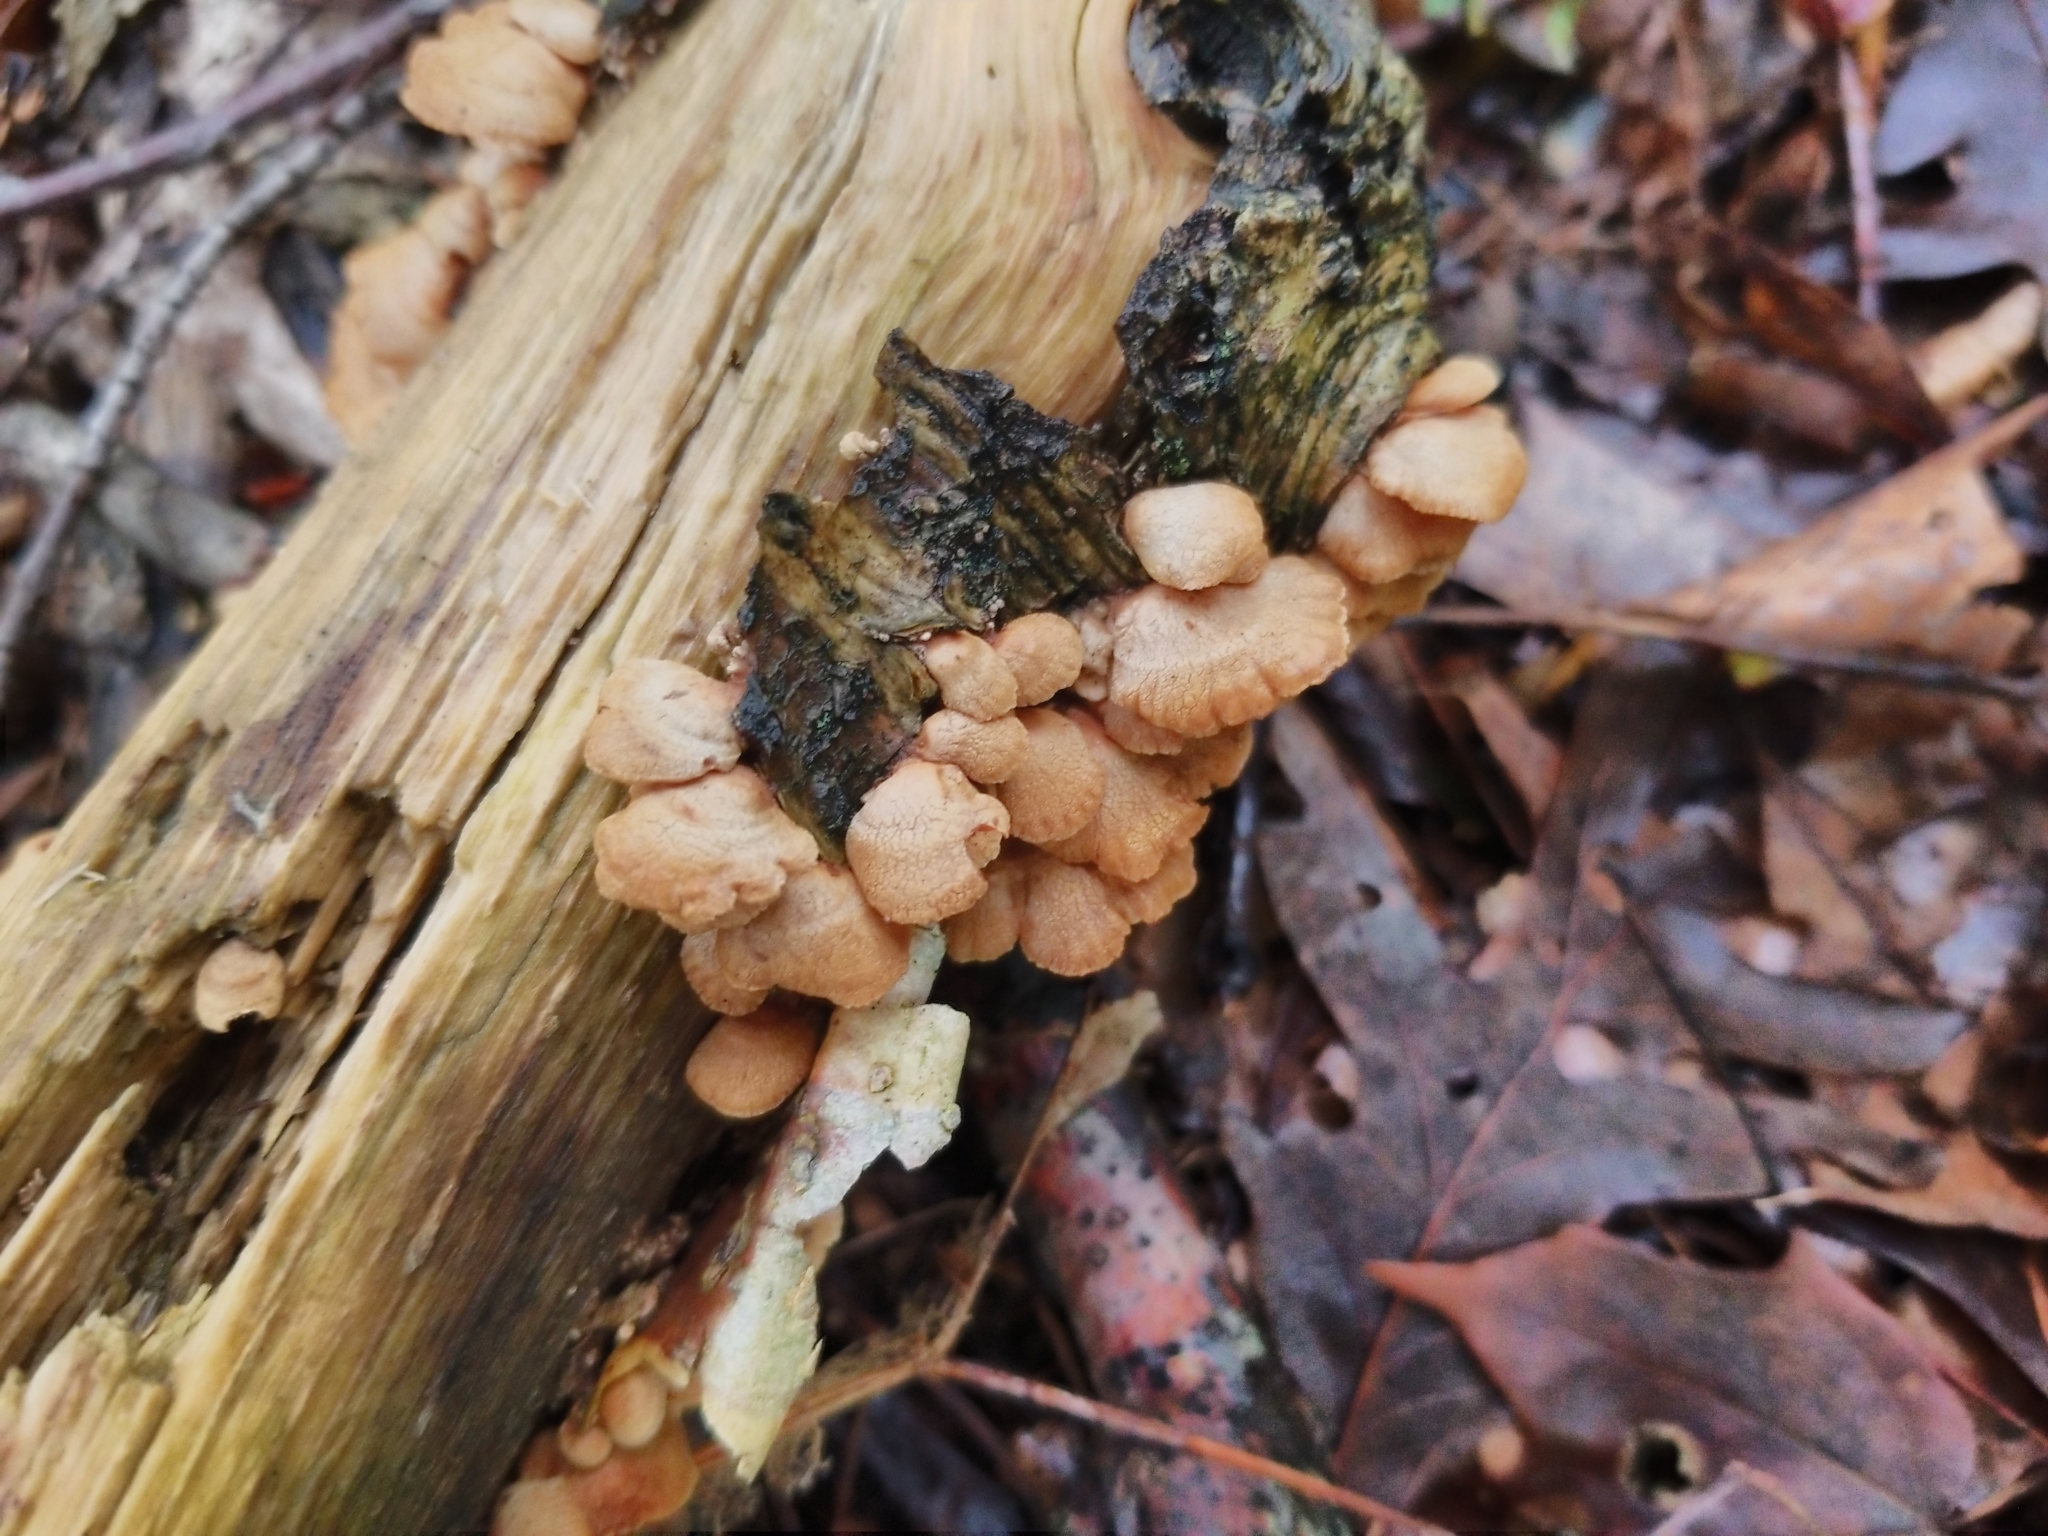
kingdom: Fungi
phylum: Basidiomycota
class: Agaricomycetes
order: Agaricales
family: Mycenaceae
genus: Panellus
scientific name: Panellus stipticus
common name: Bitter oysterling
